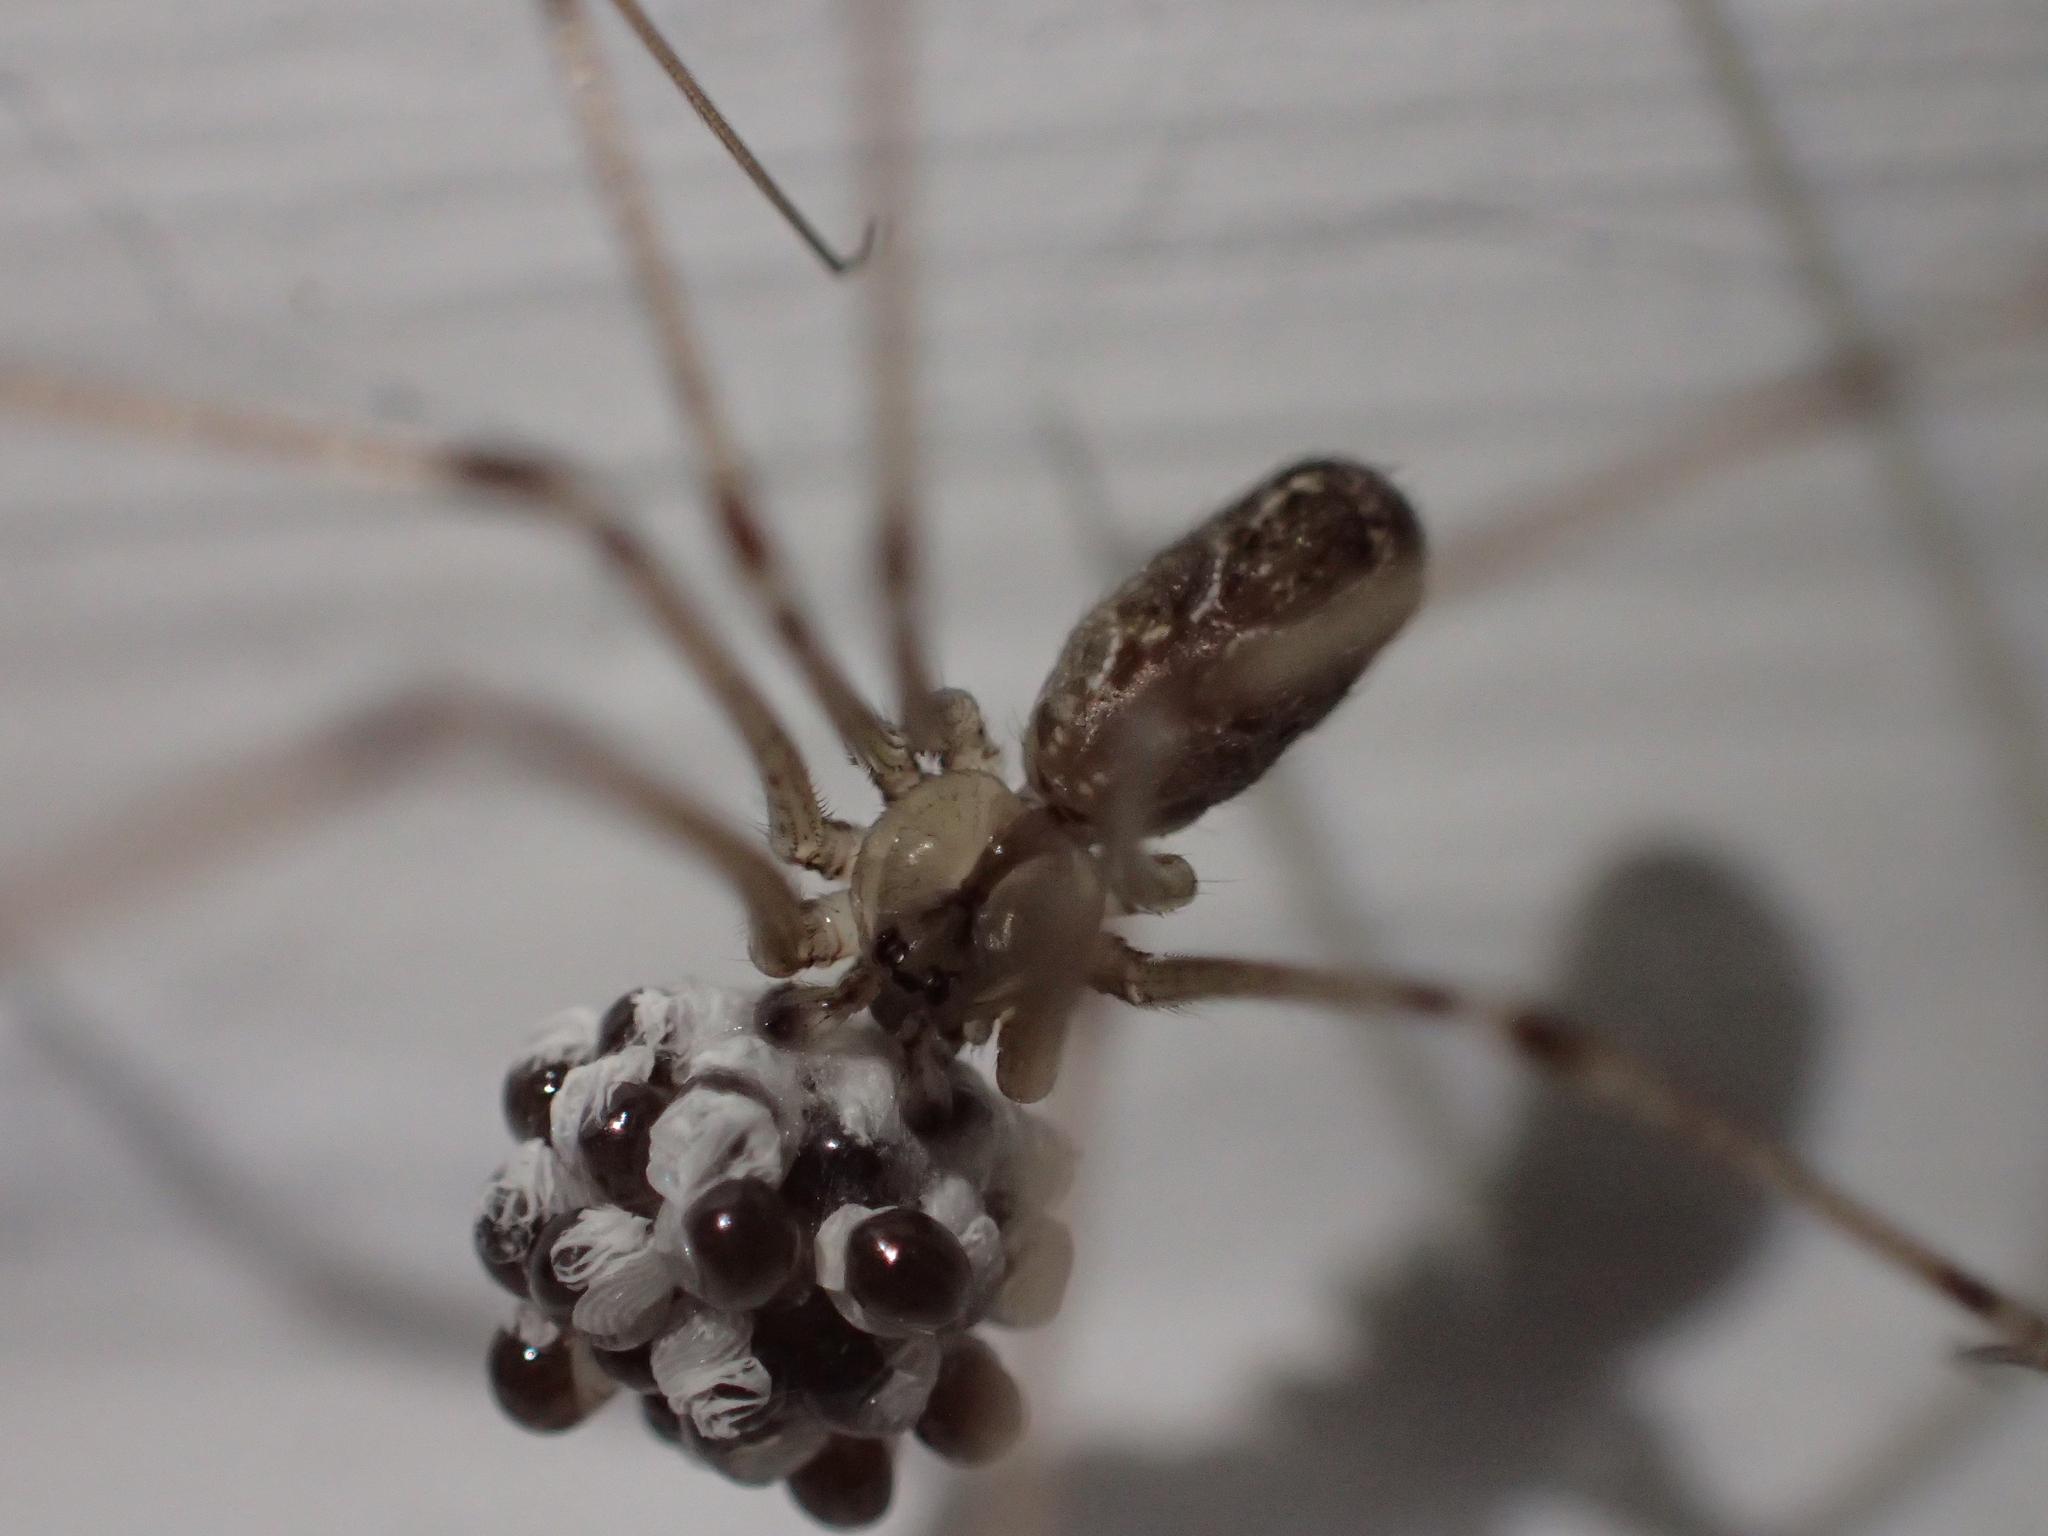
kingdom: Animalia
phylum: Arthropoda
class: Arachnida
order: Araneae
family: Pholcidae
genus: Holocnemus
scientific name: Holocnemus pluchei
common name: Marbled cellar spider
